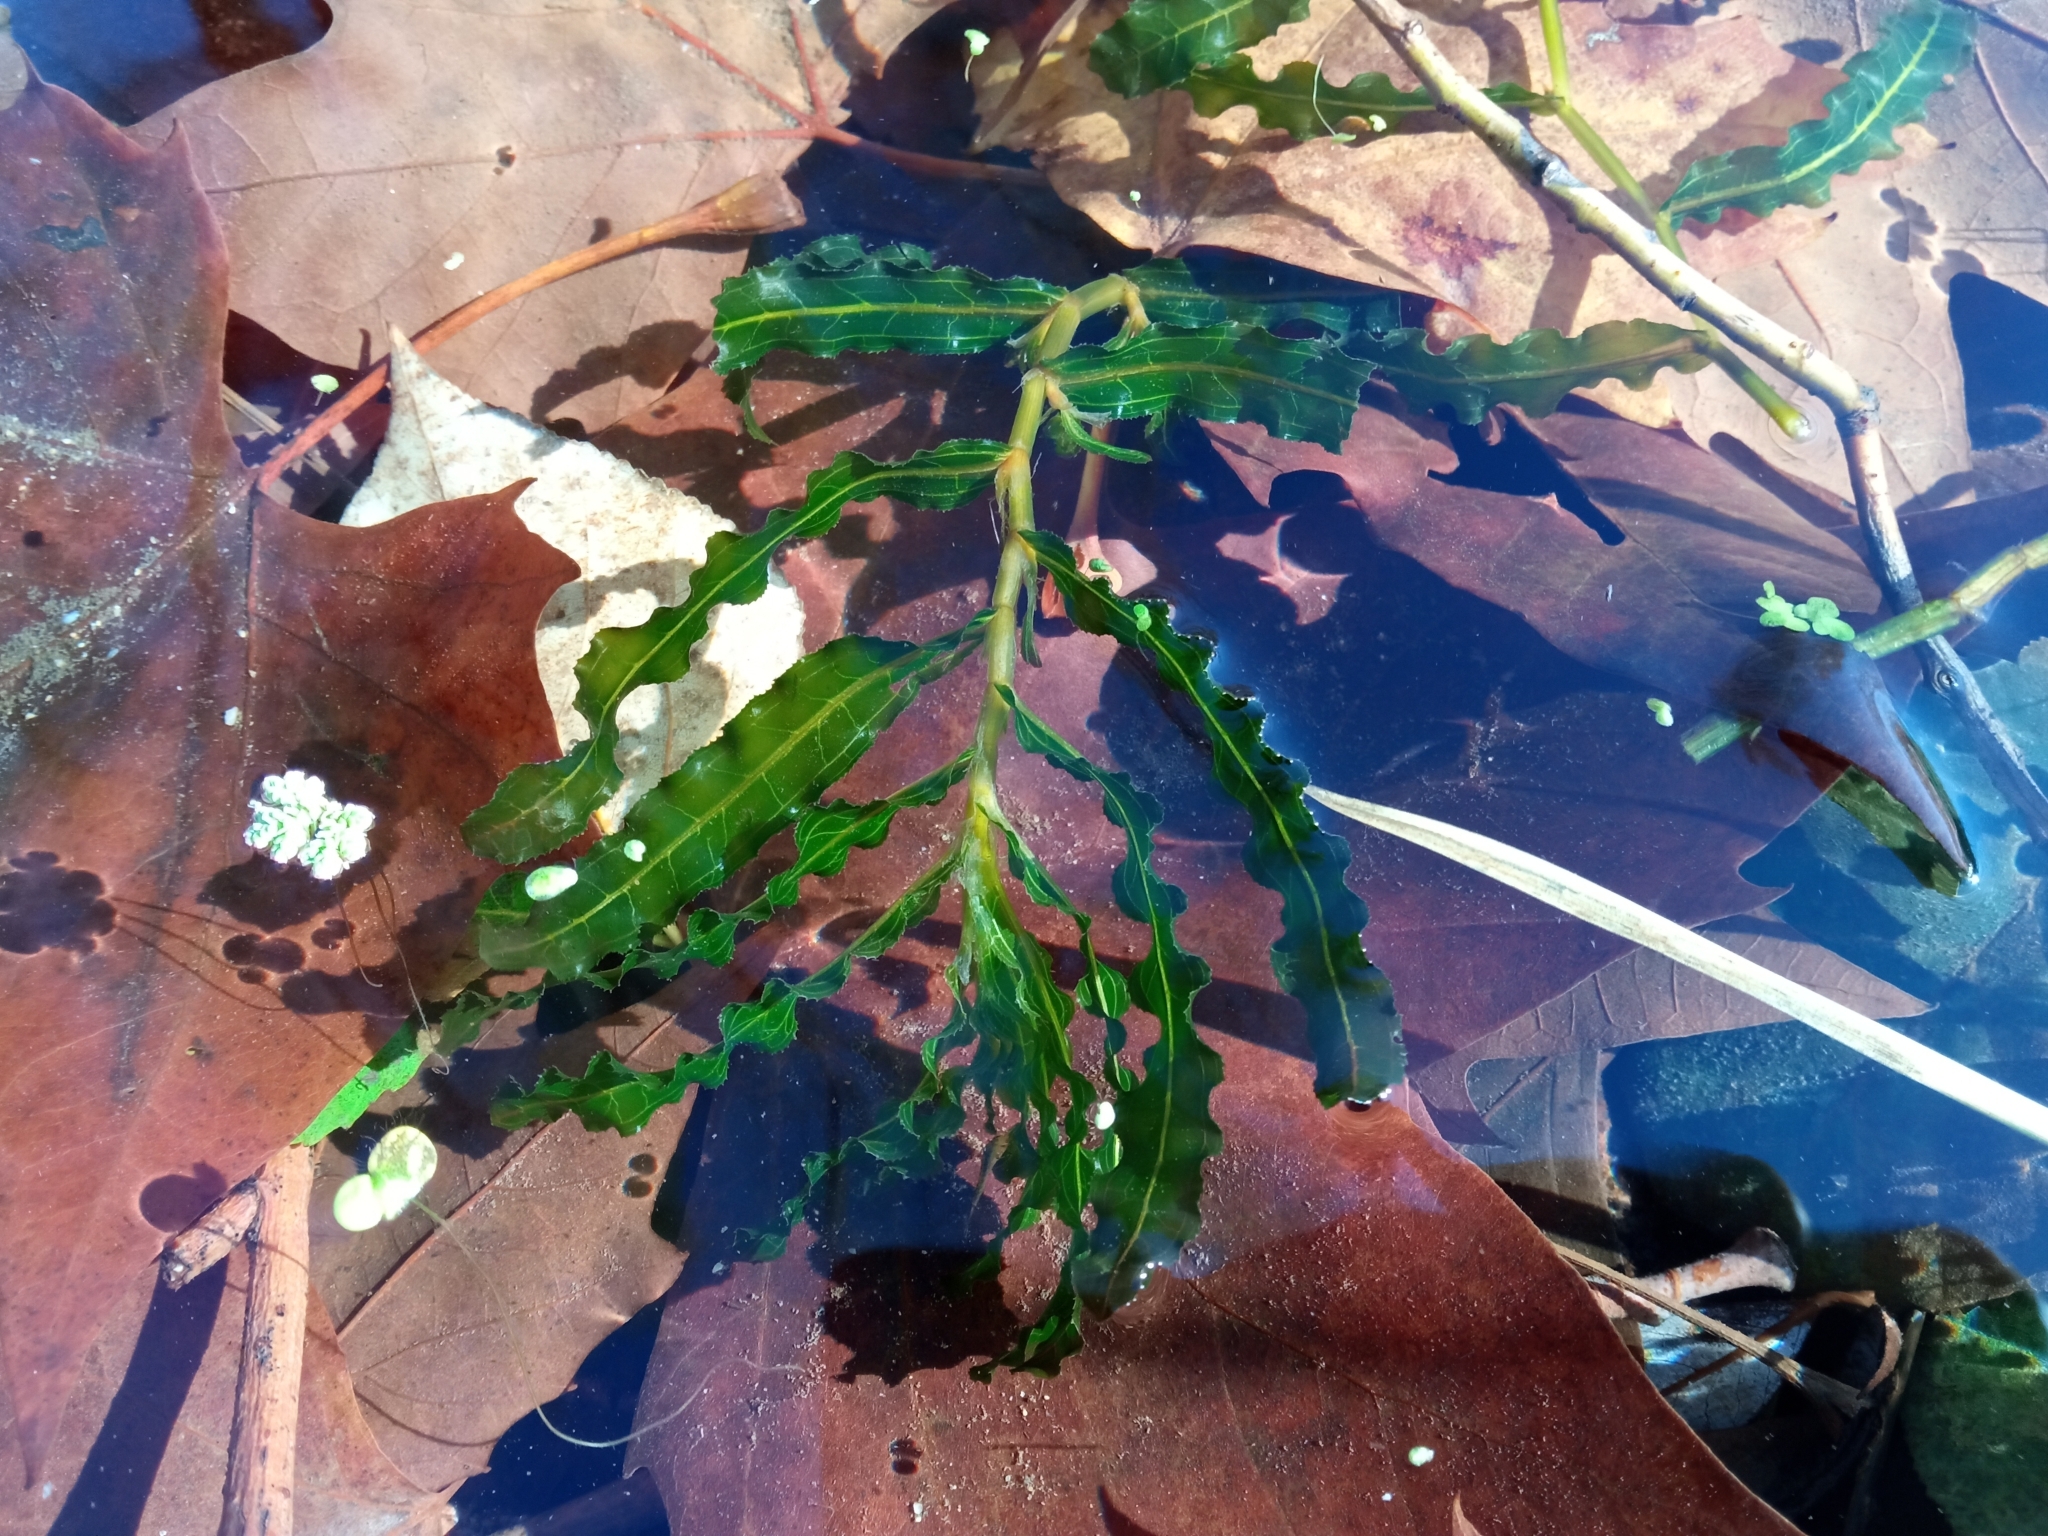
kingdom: Plantae
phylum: Tracheophyta
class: Liliopsida
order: Alismatales
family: Potamogetonaceae
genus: Potamogeton
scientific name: Potamogeton crispus
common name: Curled pondweed
